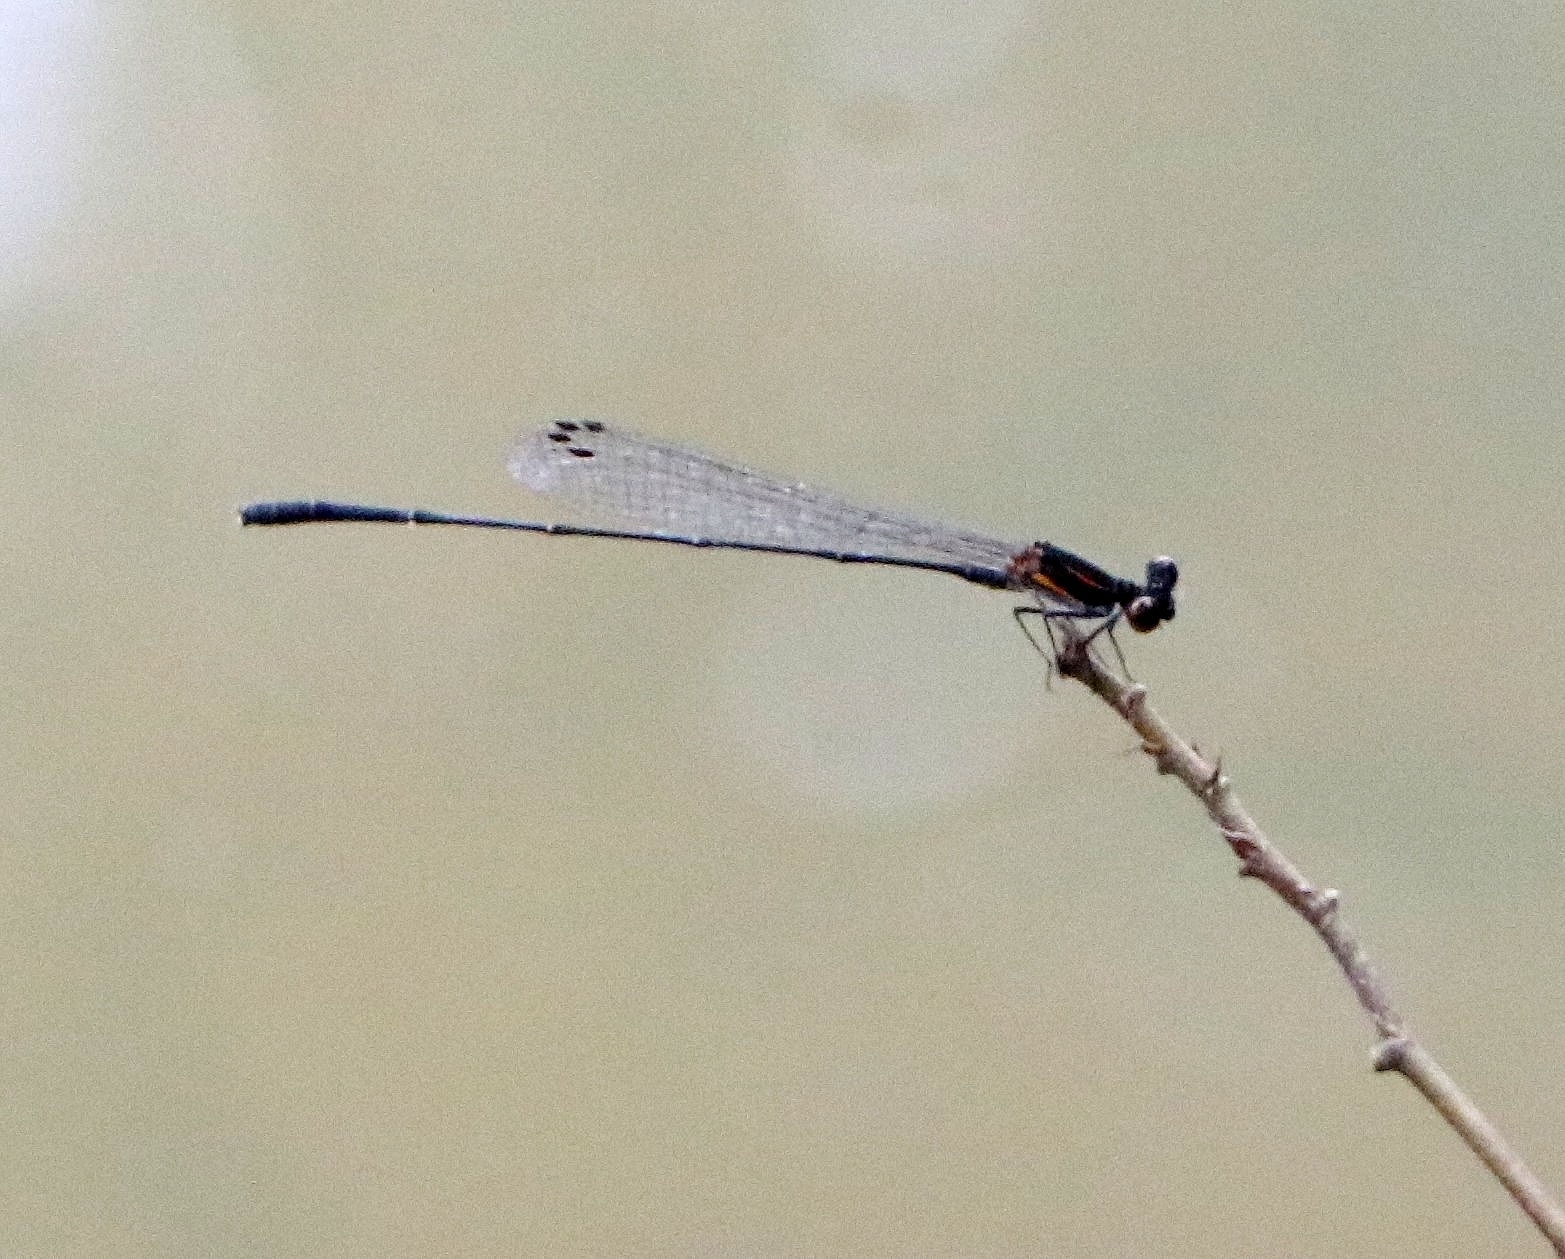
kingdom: Animalia
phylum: Arthropoda
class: Insecta
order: Odonata
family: Platycnemididae
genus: Prodasineura
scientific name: Prodasineura verticalis
